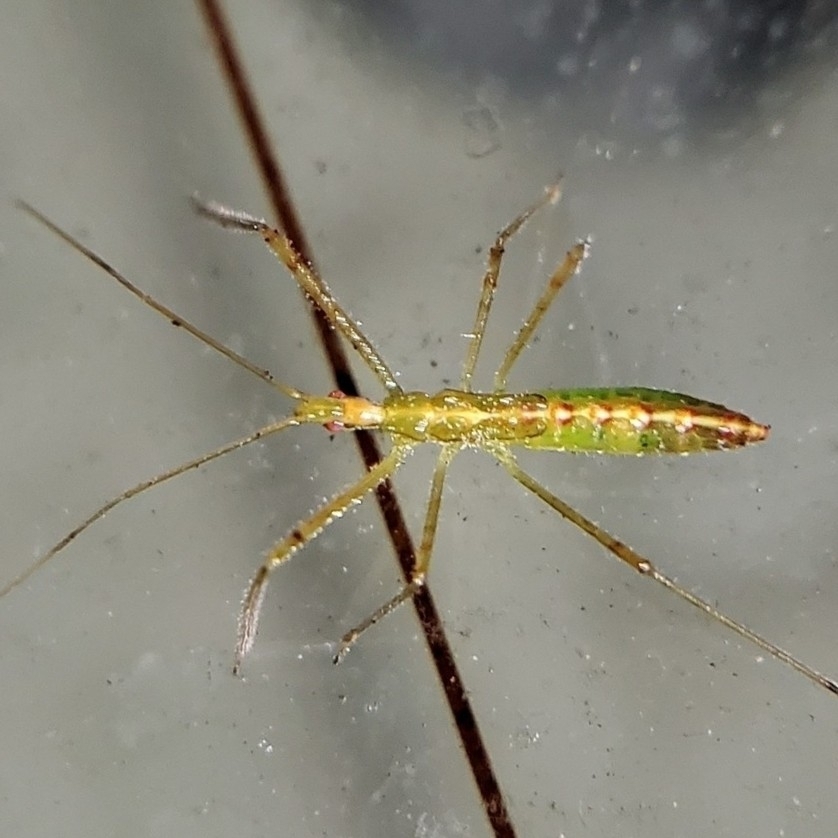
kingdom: Animalia
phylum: Arthropoda
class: Insecta
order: Hemiptera
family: Reduviidae
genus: Zelus
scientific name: Zelus luridus
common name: Pale green assassin bug
